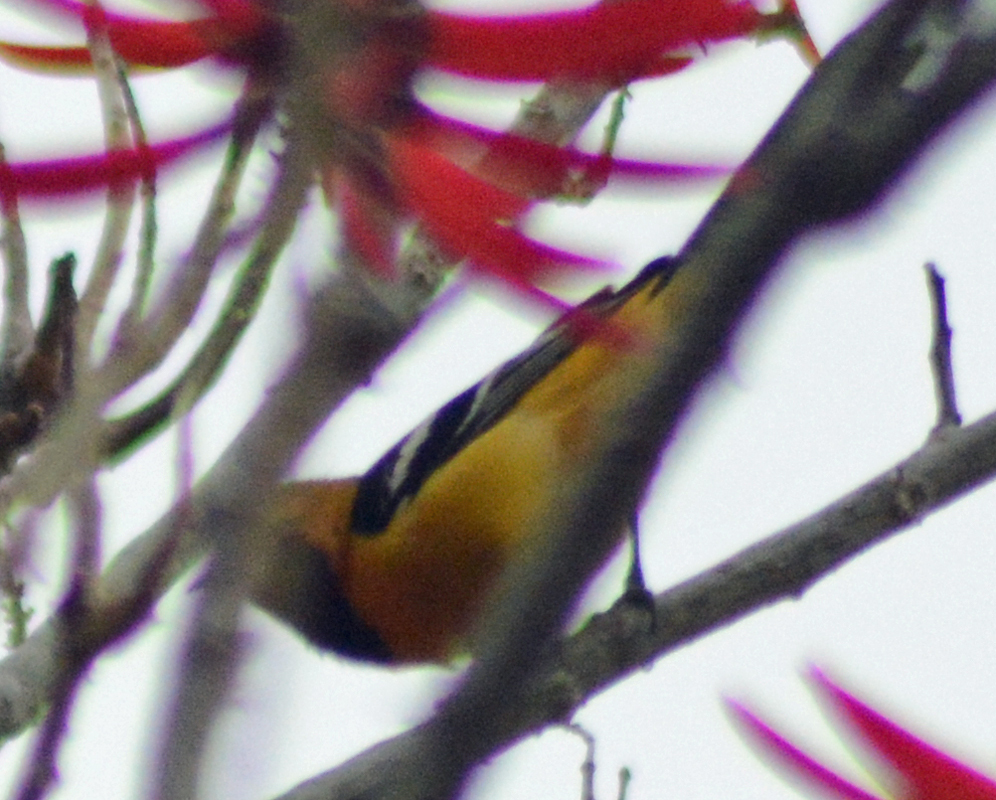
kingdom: Animalia
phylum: Chordata
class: Aves
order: Passeriformes
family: Icteridae
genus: Icterus
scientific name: Icterus cucullatus
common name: Hooded oriole
